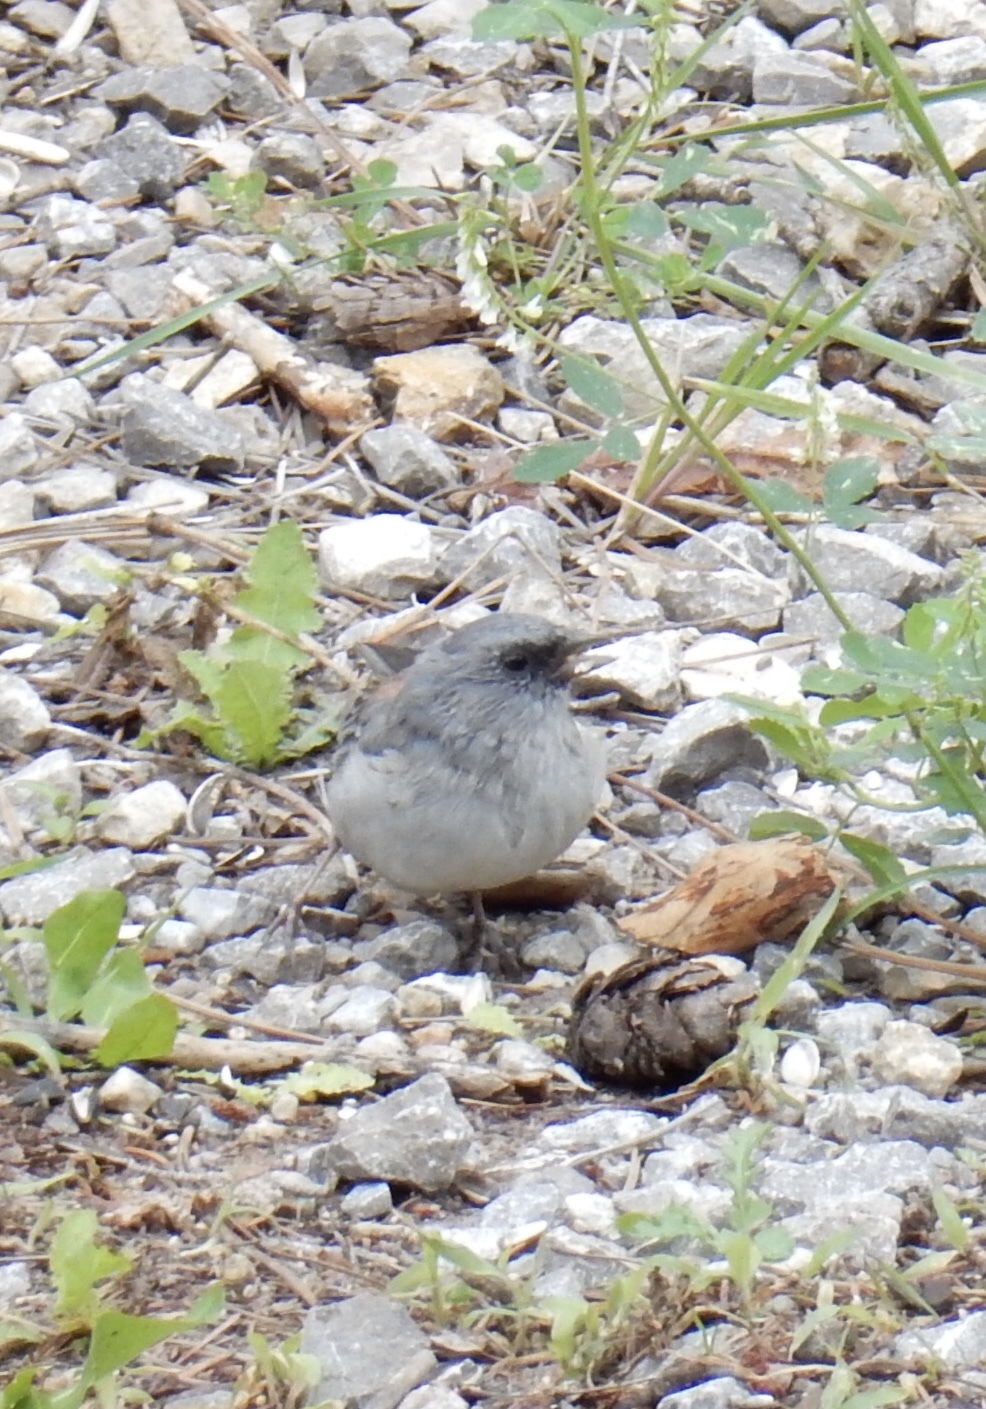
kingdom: Animalia
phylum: Chordata
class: Aves
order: Passeriformes
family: Passerellidae
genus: Junco
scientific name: Junco hyemalis
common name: Dark-eyed junco
